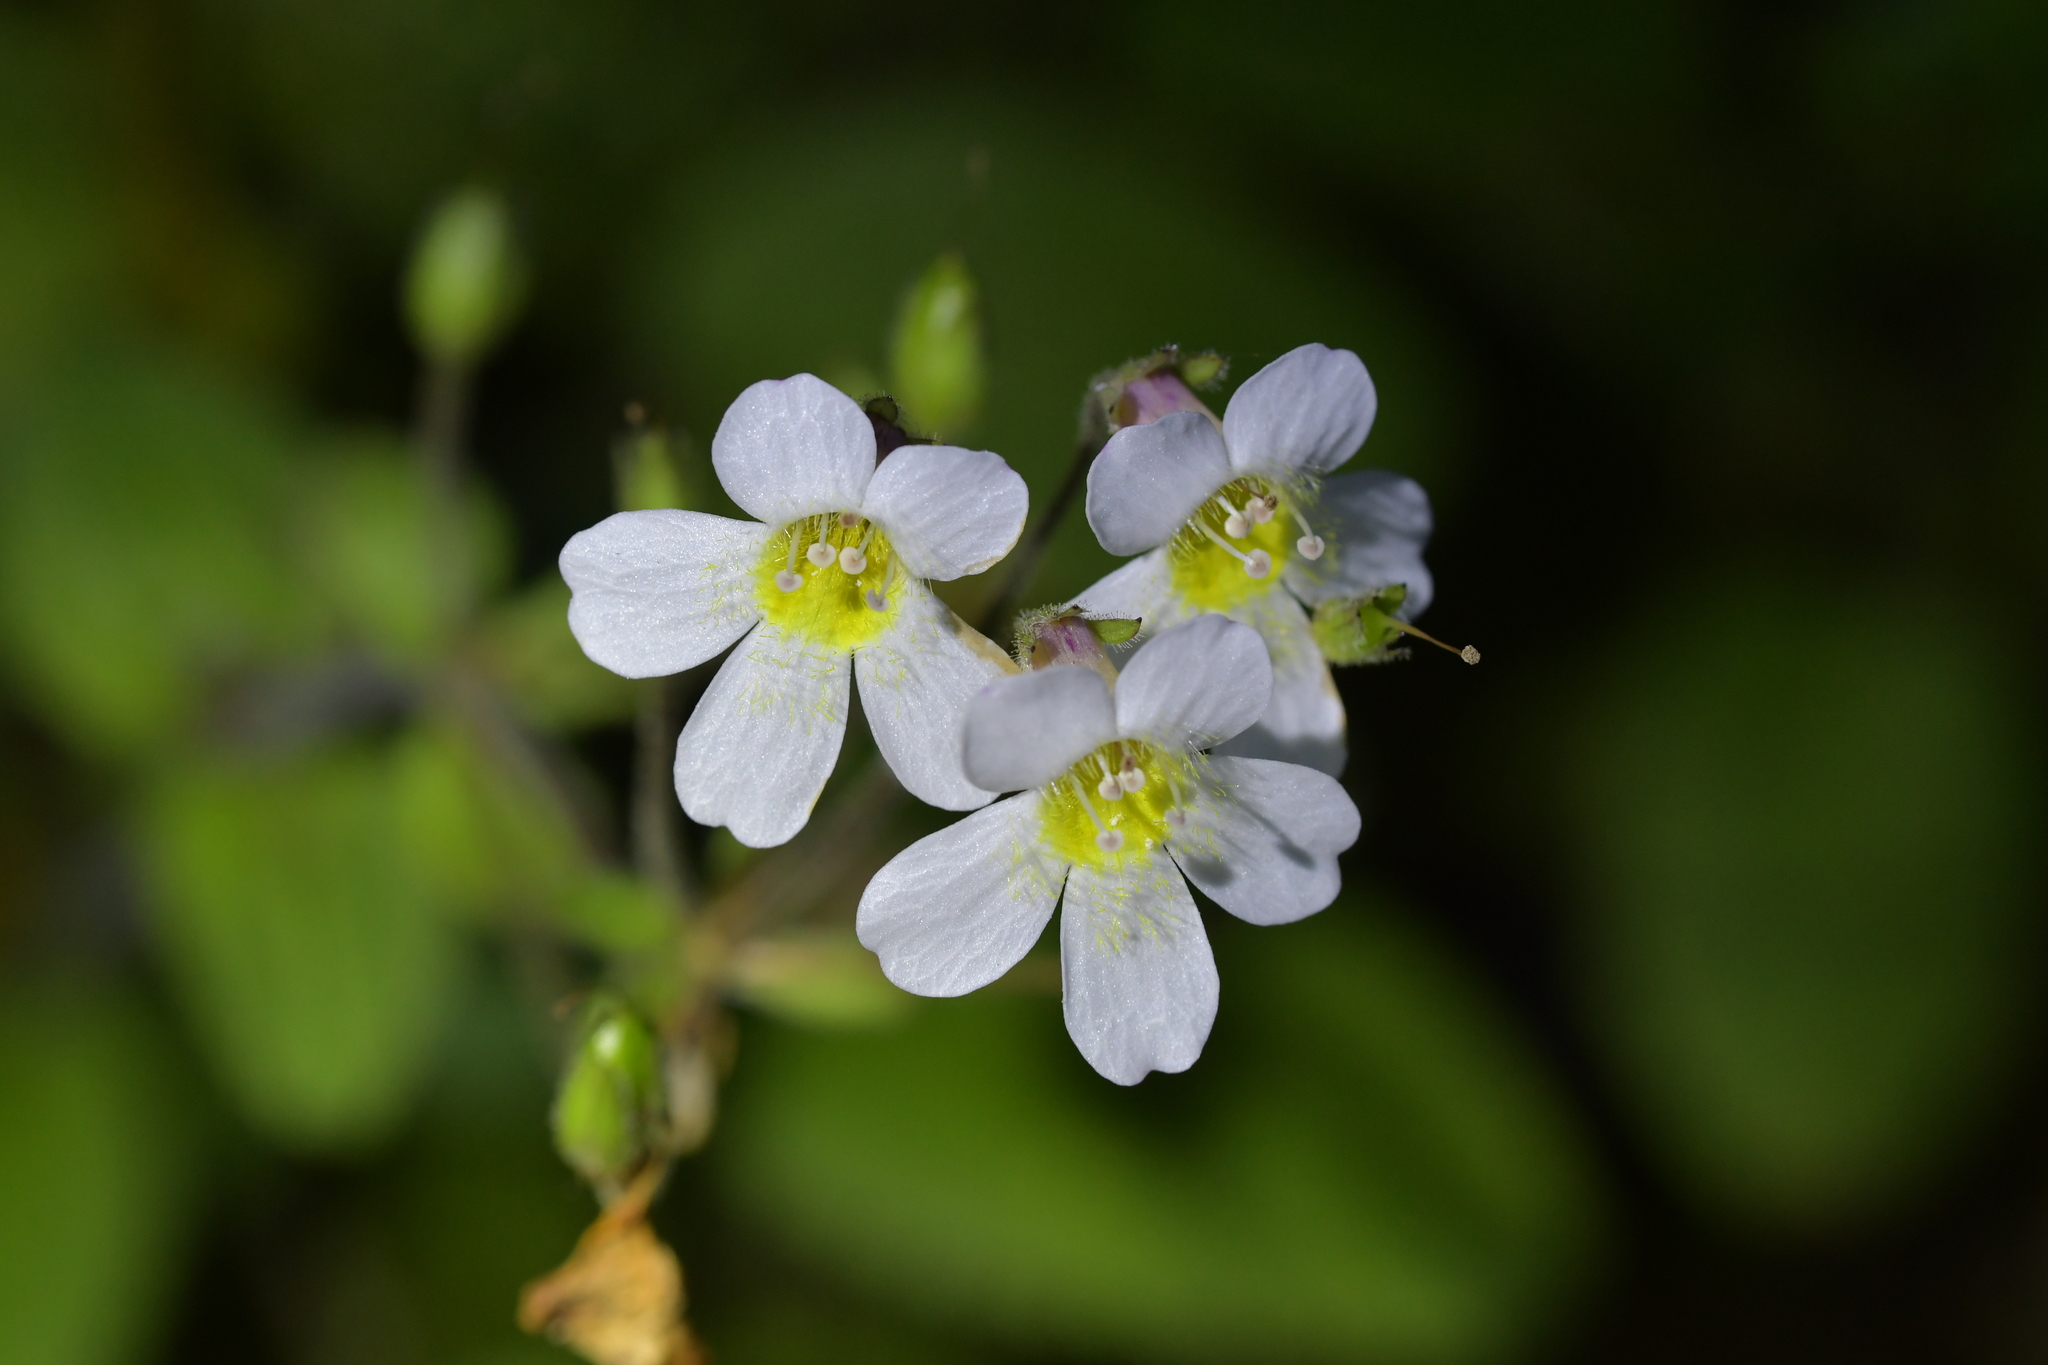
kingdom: Plantae
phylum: Tracheophyta
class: Magnoliopsida
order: Lamiales
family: Plantaginaceae
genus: Ourisia
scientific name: Ourisia macrophylla
